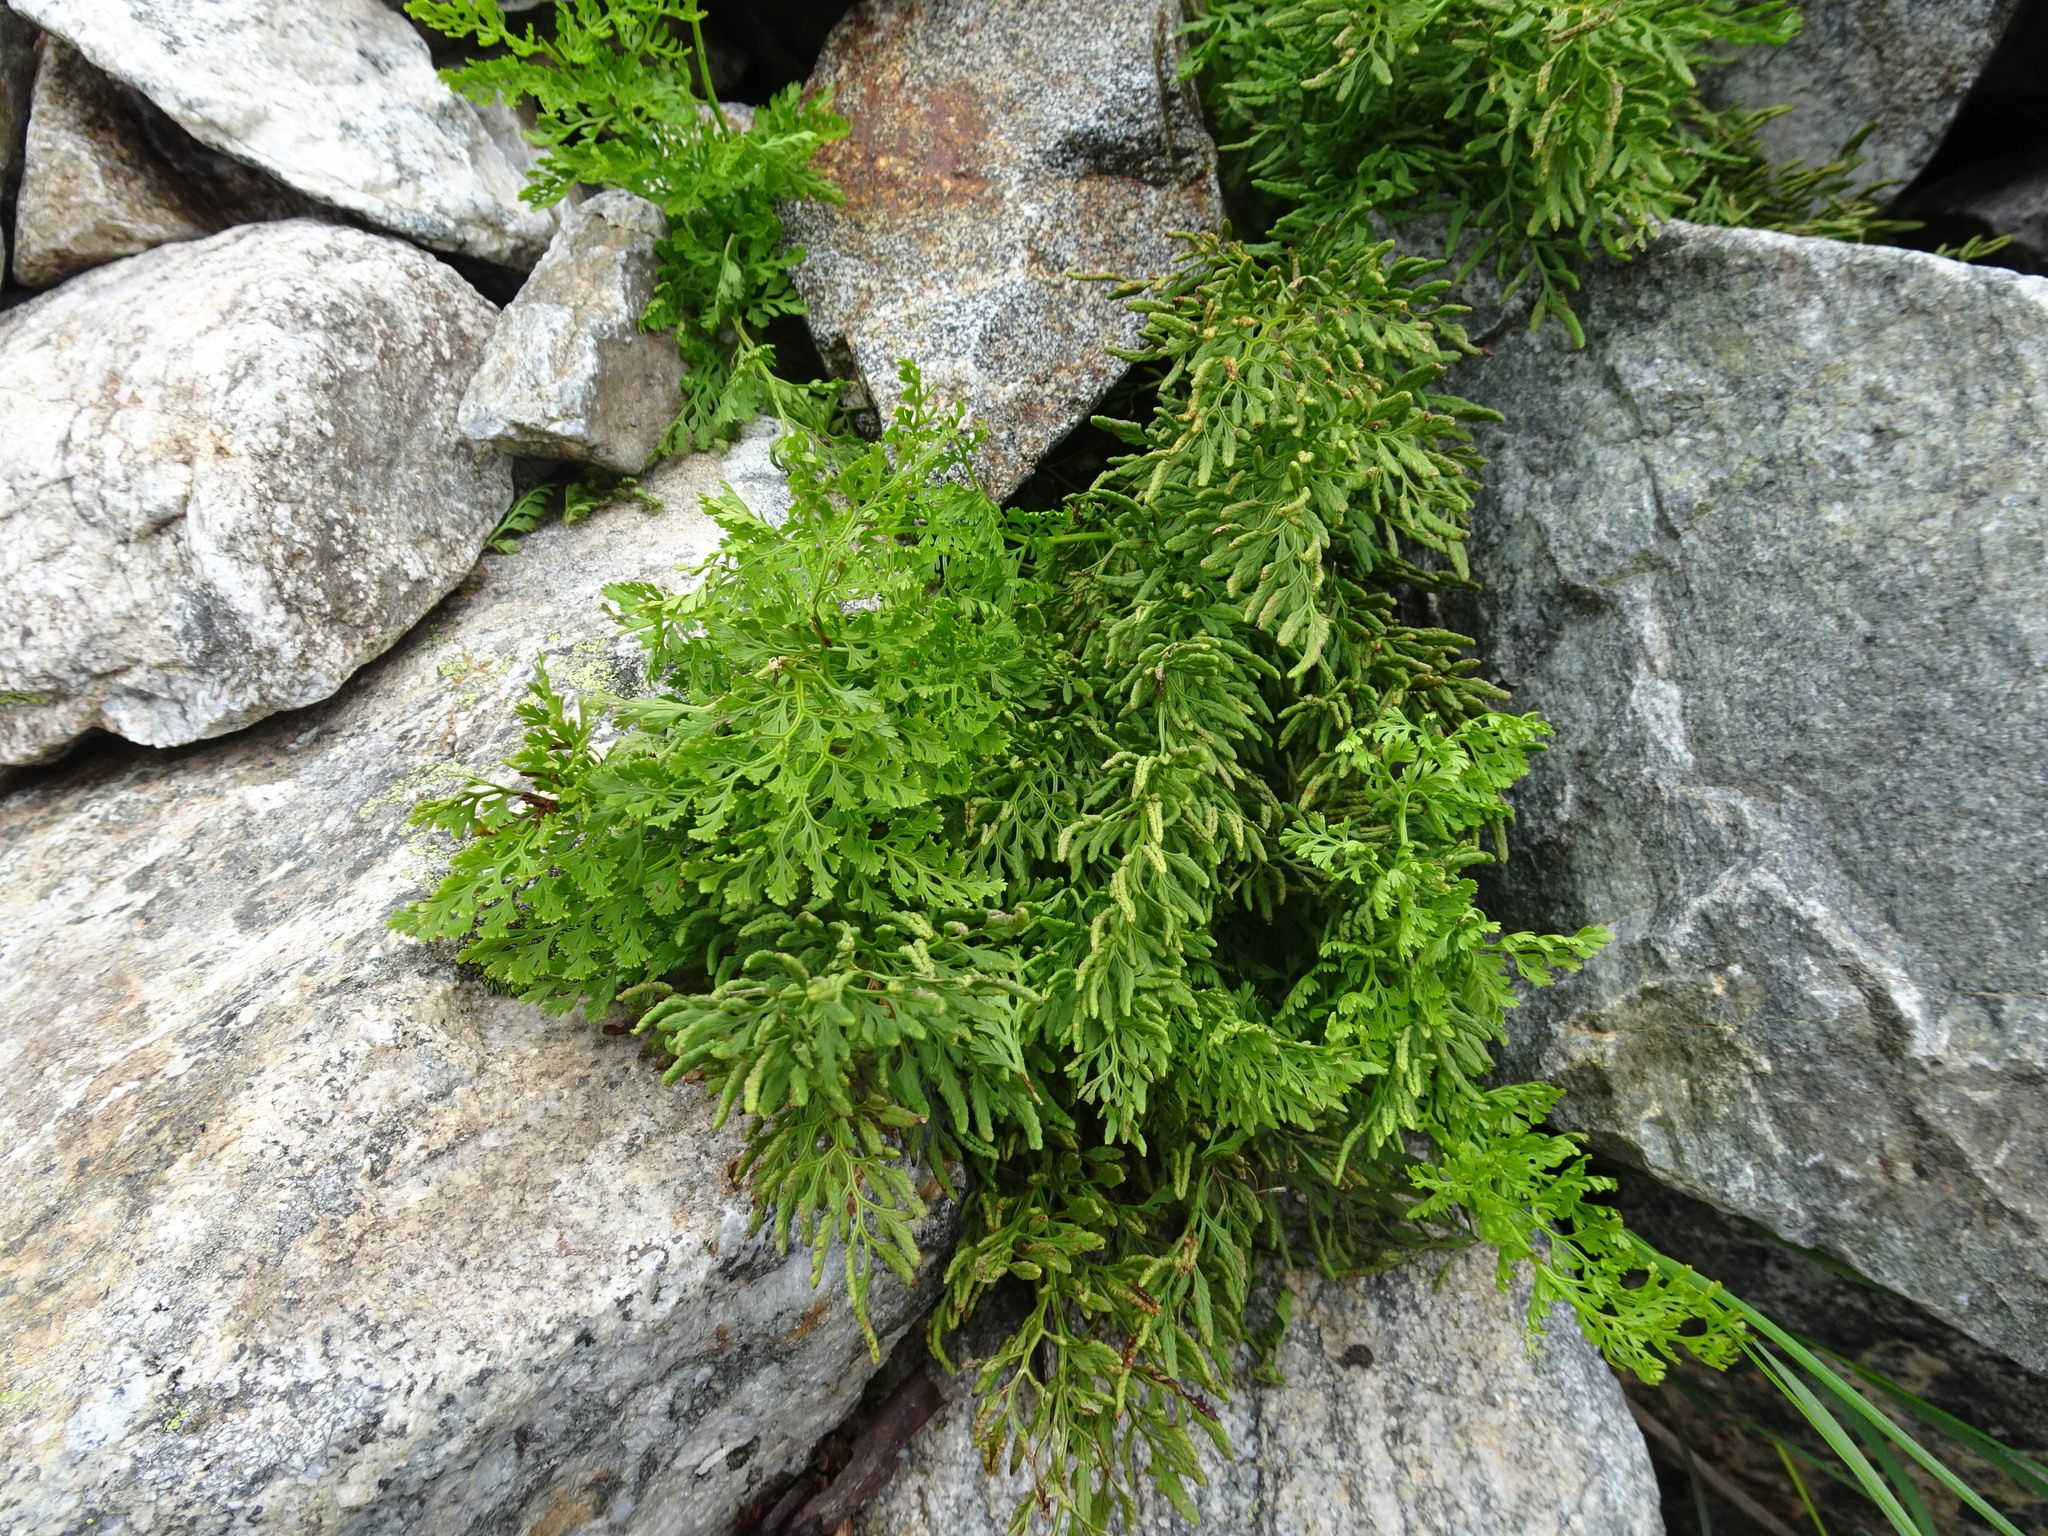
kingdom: Plantae
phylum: Tracheophyta
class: Polypodiopsida
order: Polypodiales
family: Pteridaceae
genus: Cryptogramma
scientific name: Cryptogramma crispa
